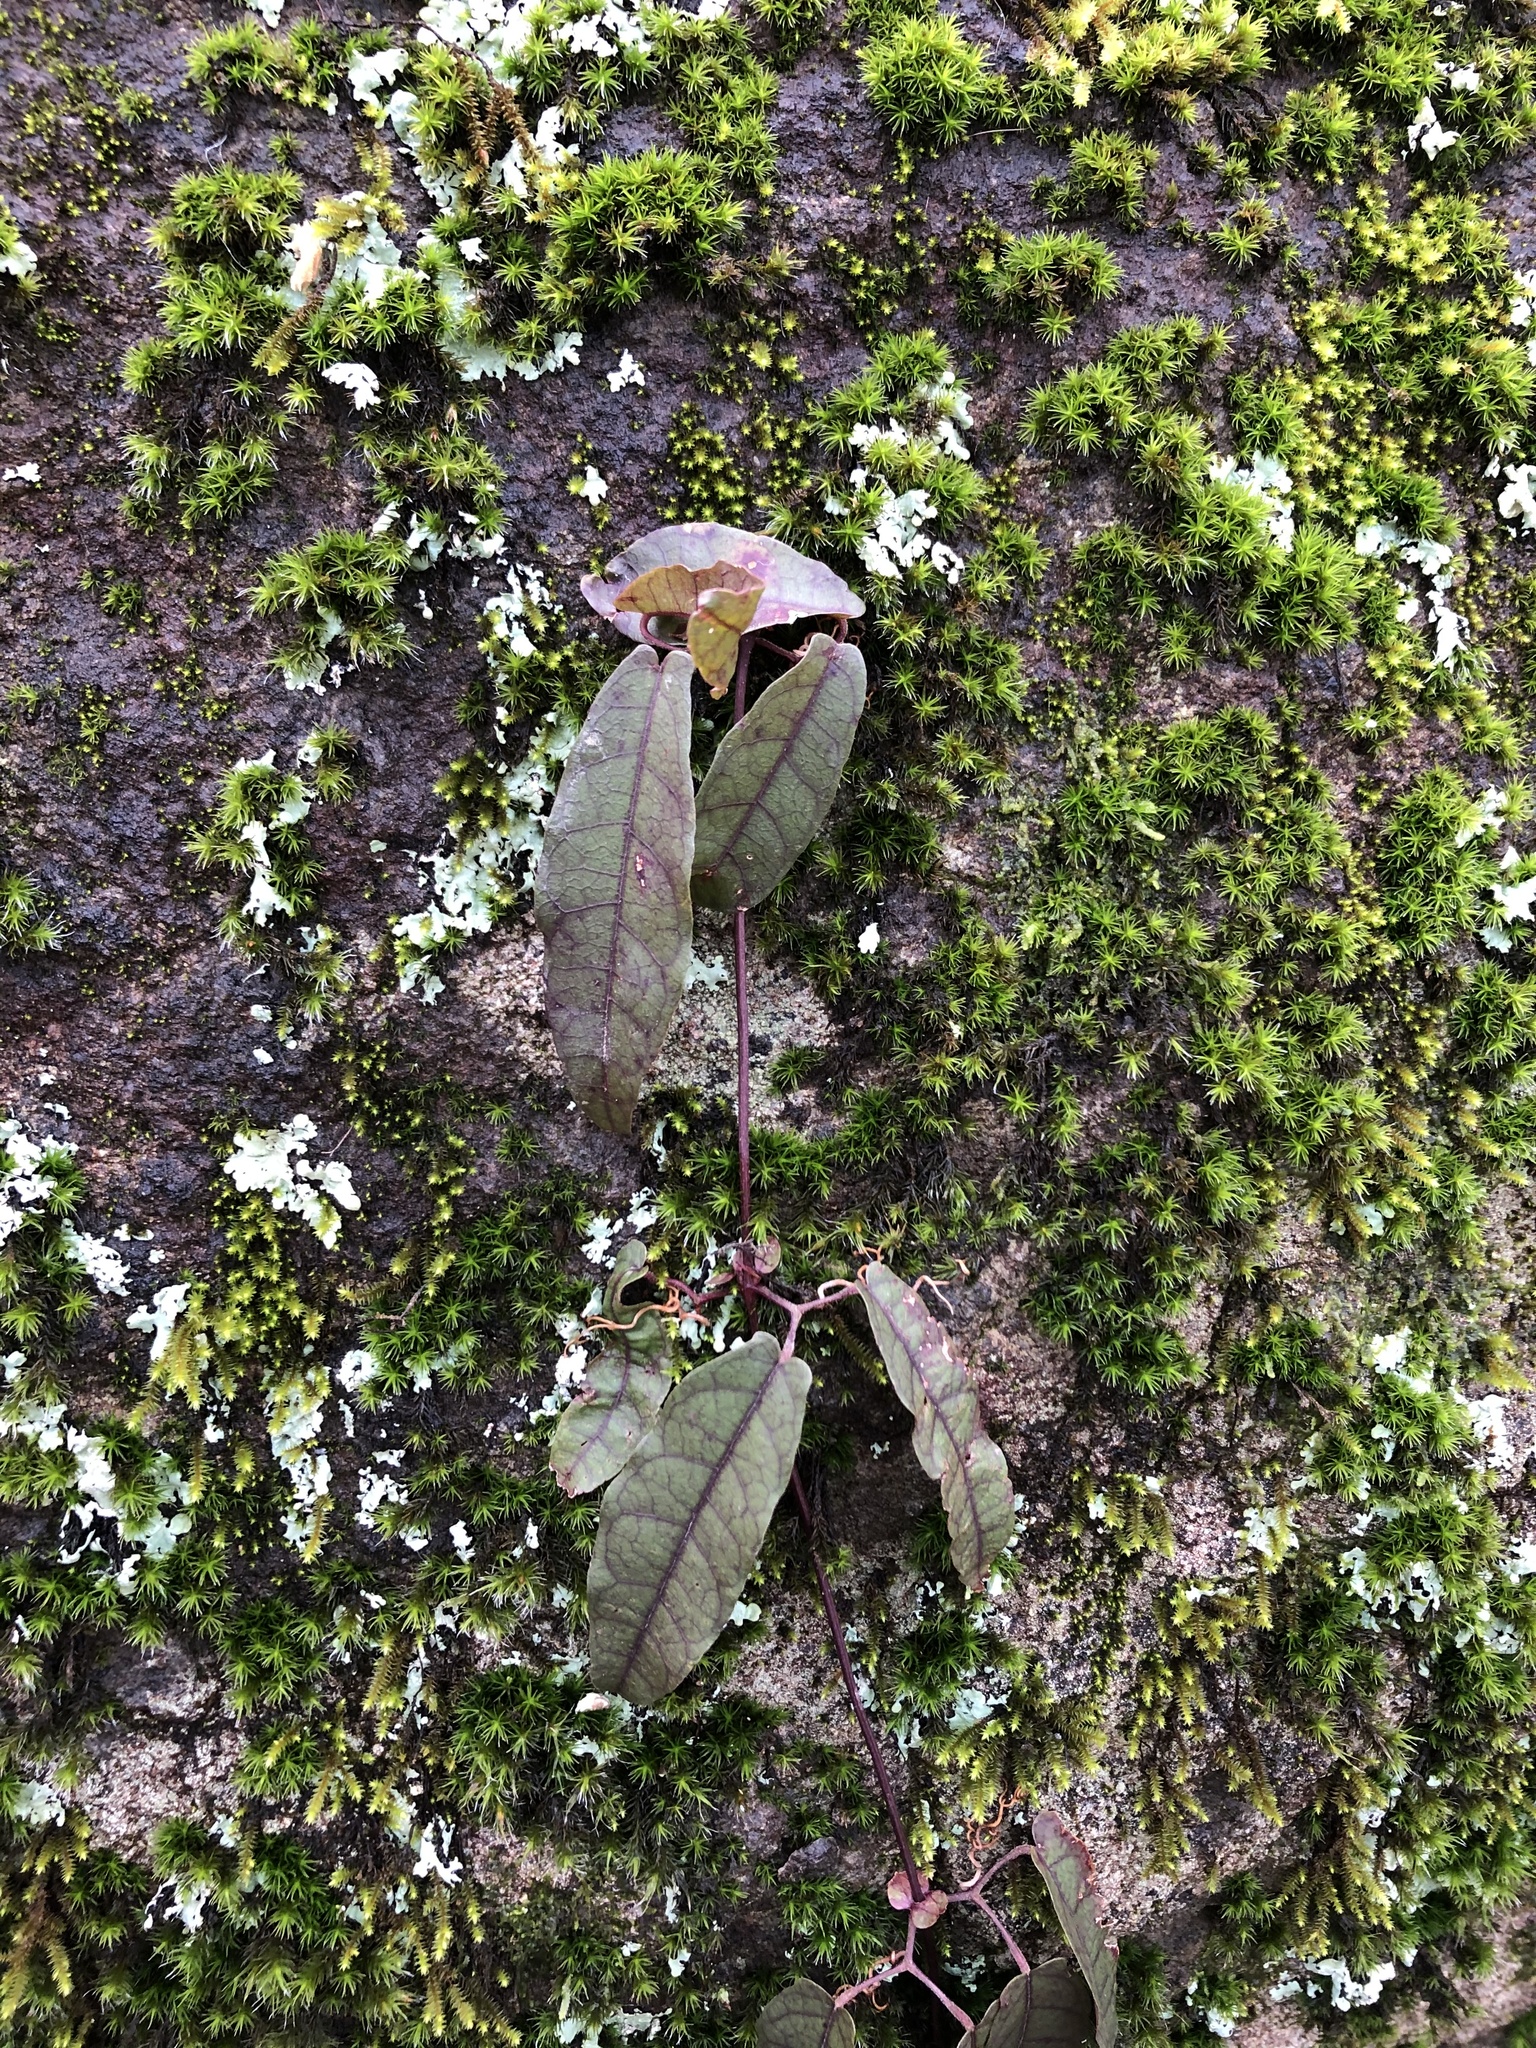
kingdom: Plantae
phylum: Tracheophyta
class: Magnoliopsida
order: Lamiales
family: Bignoniaceae
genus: Bignonia
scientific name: Bignonia capreolata
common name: Crossvine
